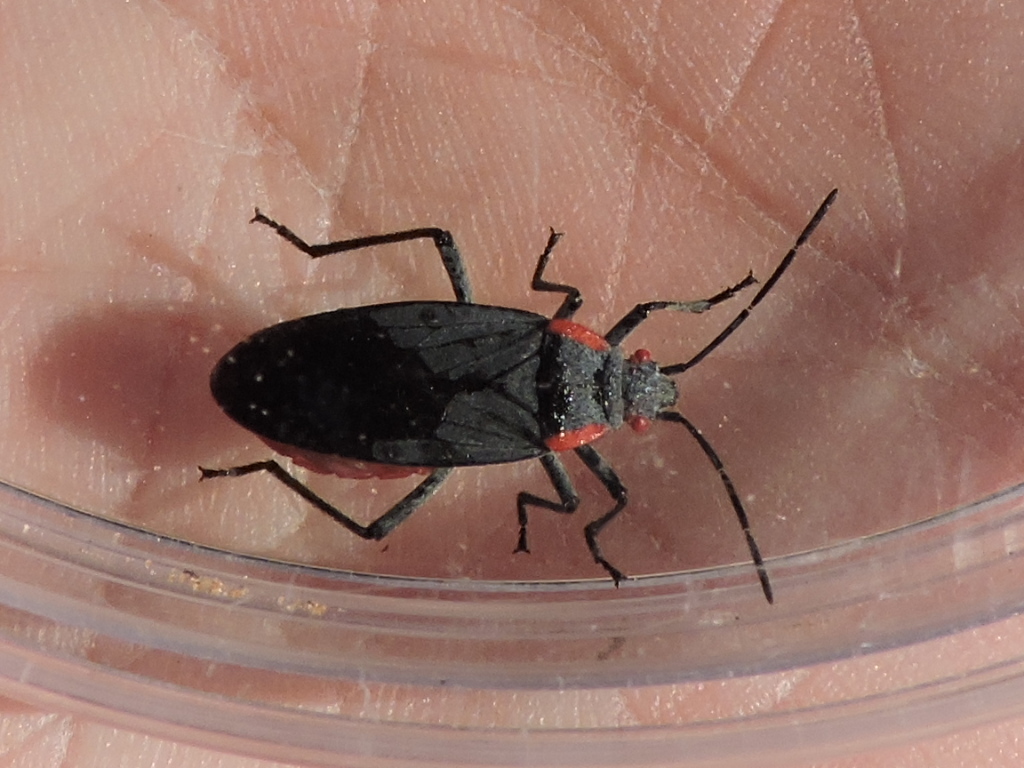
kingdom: Animalia
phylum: Arthropoda
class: Insecta
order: Hemiptera
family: Rhopalidae
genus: Jadera
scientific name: Jadera haematoloma
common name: Red-shouldered bug
